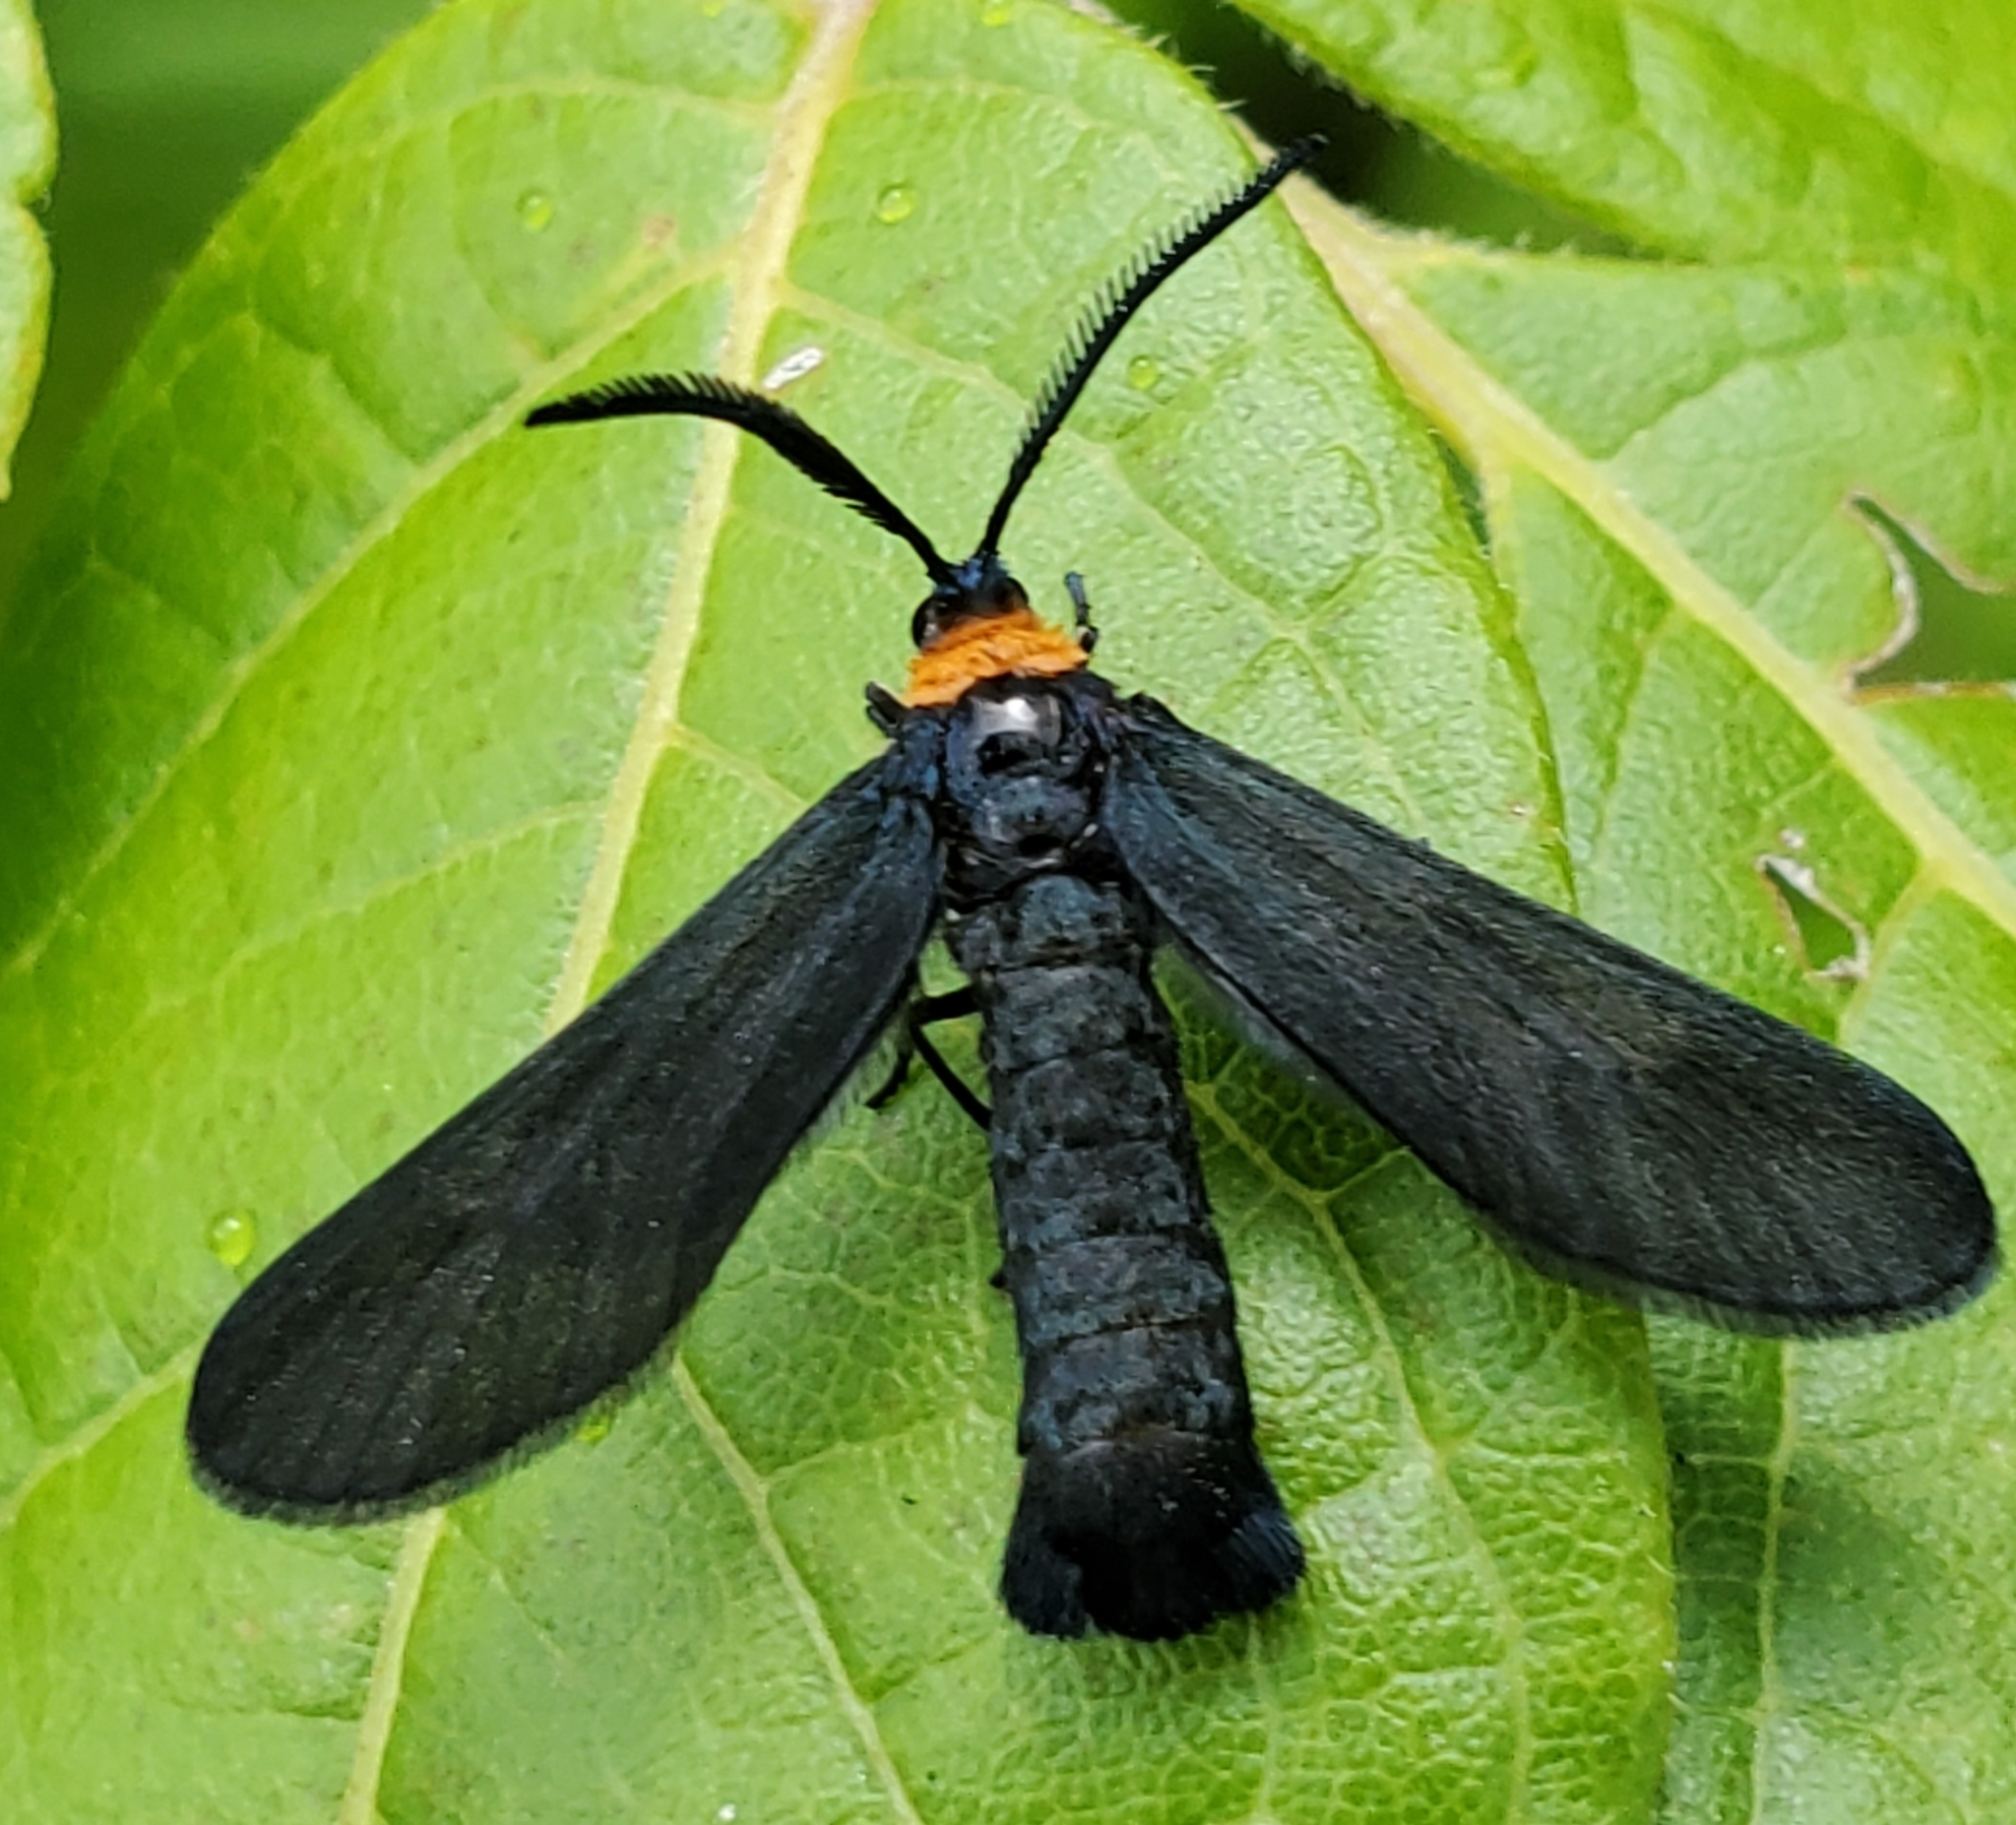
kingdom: Animalia
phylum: Arthropoda
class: Insecta
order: Lepidoptera
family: Zygaenidae
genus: Harrisina
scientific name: Harrisina americana
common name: Grapeleaf skeletonizer moth
